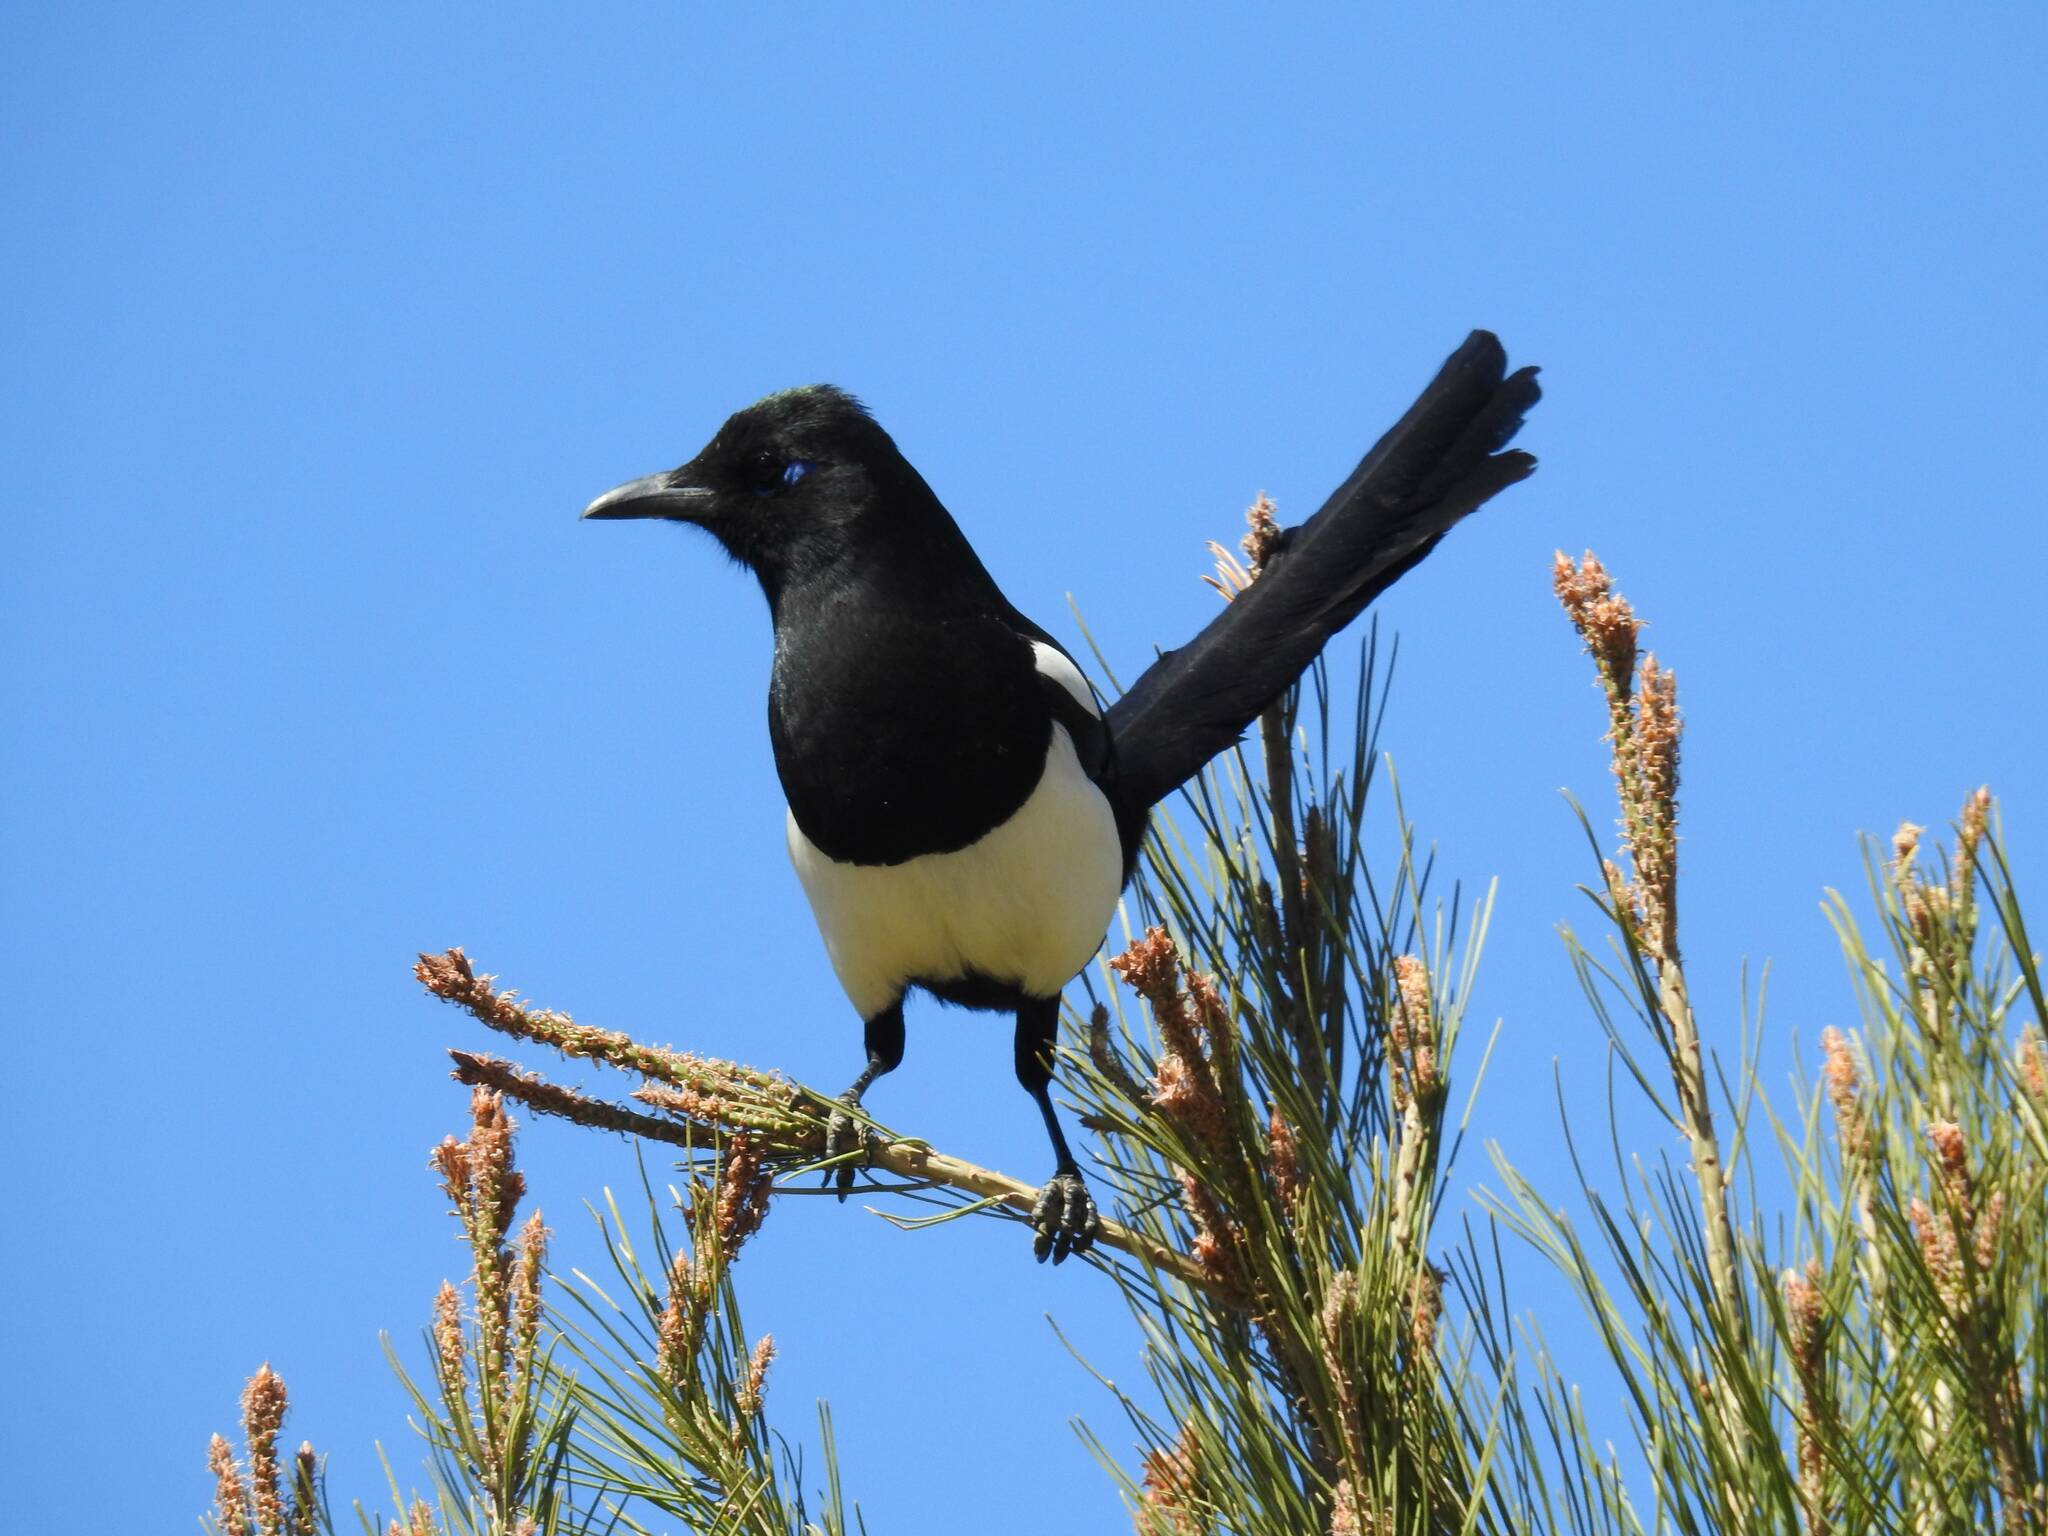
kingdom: Animalia
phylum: Chordata
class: Aves
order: Passeriformes
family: Corvidae
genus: Pica
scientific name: Pica mauritanica
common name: Maghreb magpie
